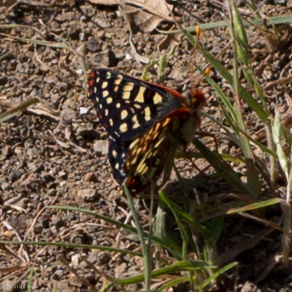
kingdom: Animalia
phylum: Arthropoda
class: Insecta
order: Lepidoptera
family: Nymphalidae
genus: Occidryas
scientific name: Occidryas chalcedona
